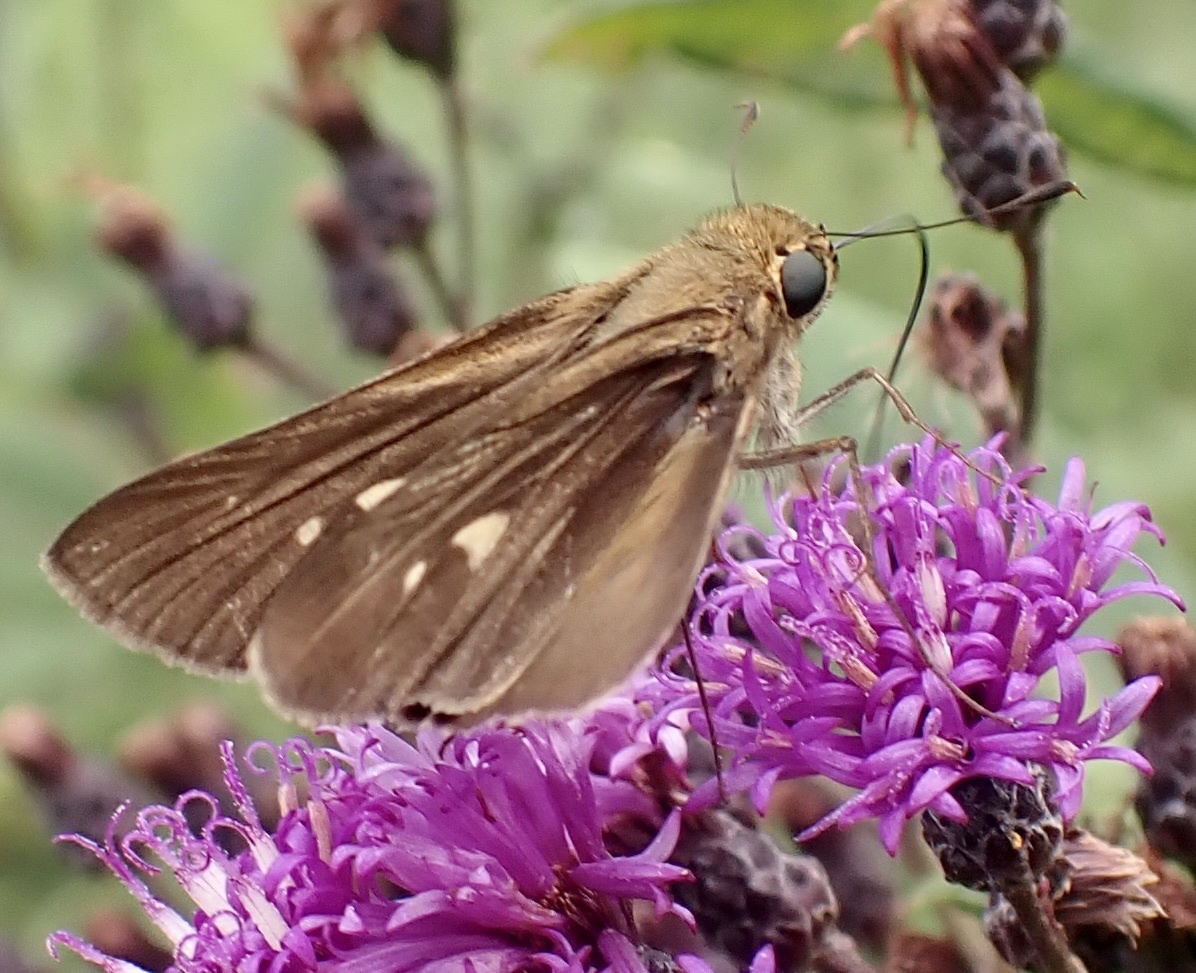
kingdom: Animalia
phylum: Arthropoda
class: Insecta
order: Lepidoptera
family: Hesperiidae
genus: Panoquina
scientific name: Panoquina ocola
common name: Ocola skipper
